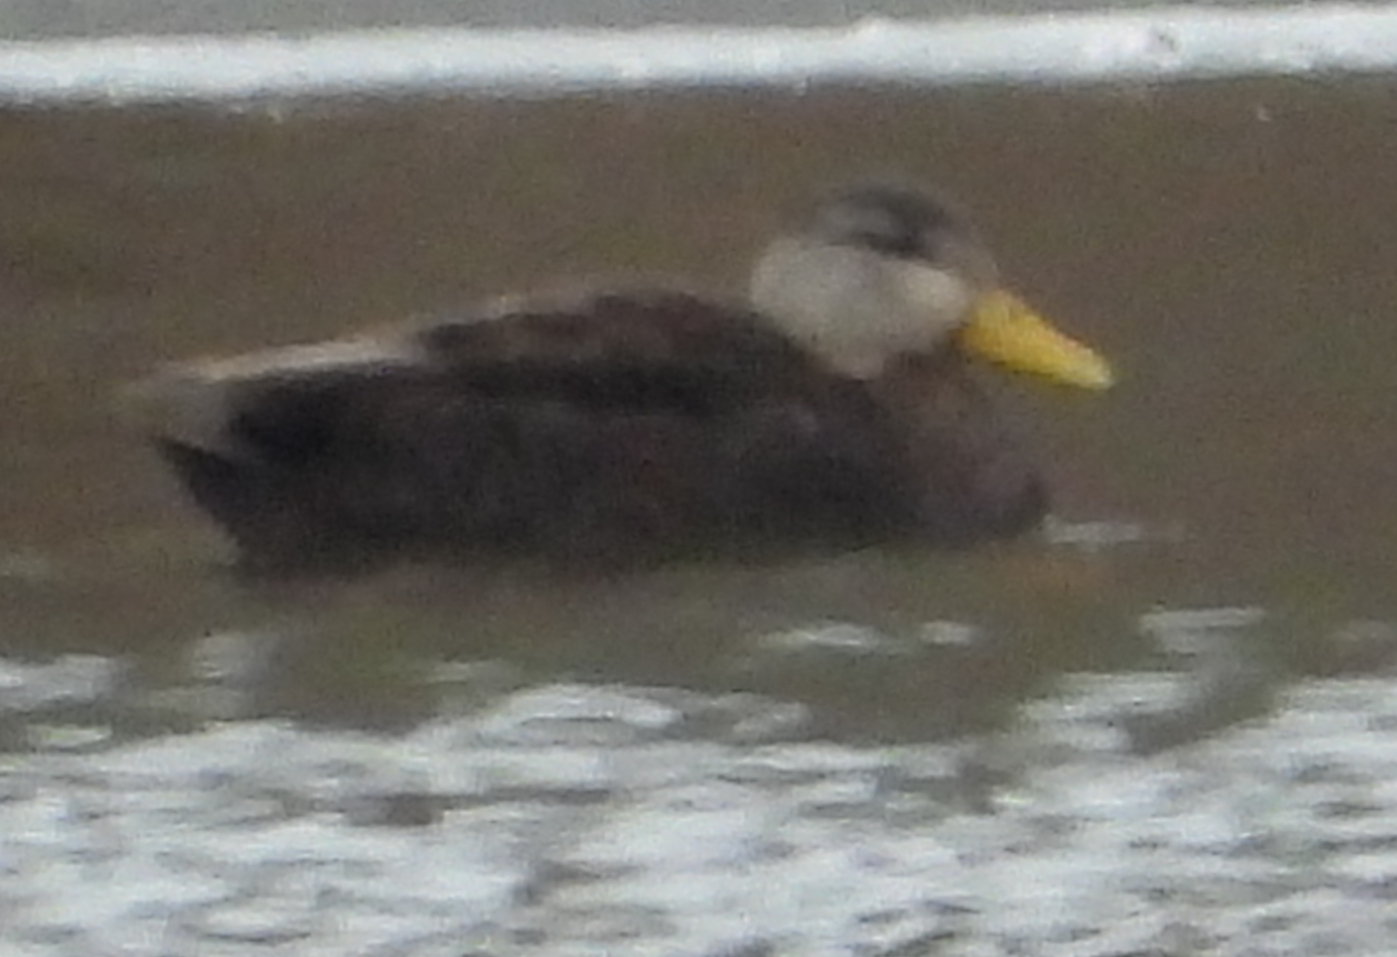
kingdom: Animalia
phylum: Chordata
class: Aves
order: Anseriformes
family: Anatidae
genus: Anas
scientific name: Anas rubripes
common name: American black duck
